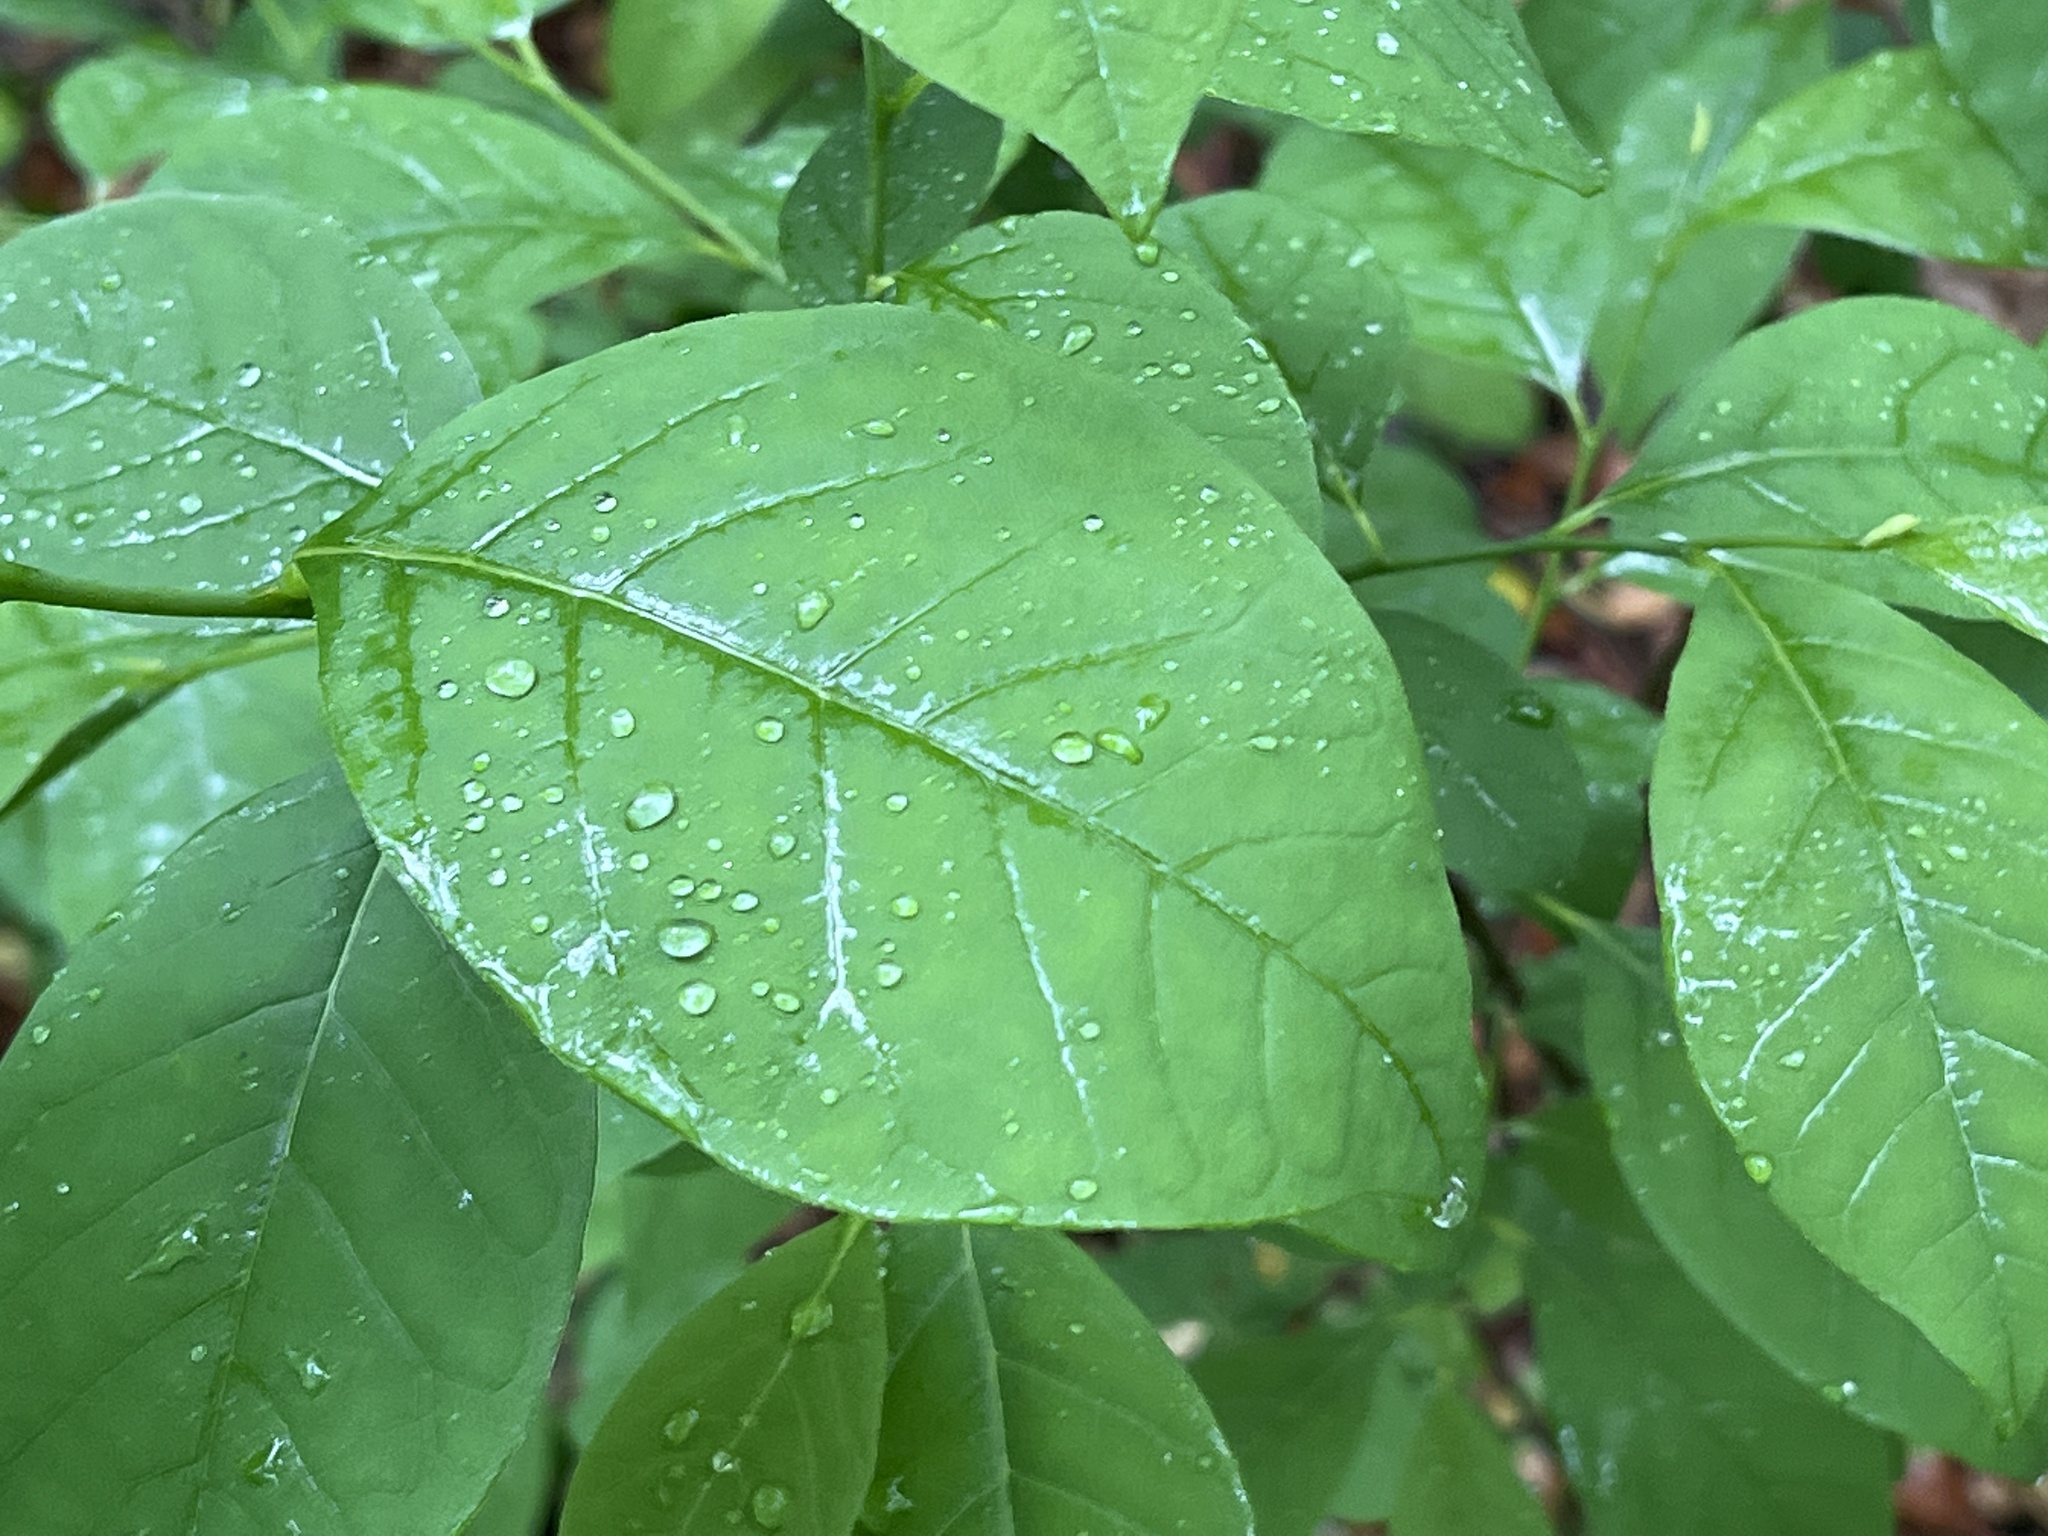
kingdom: Plantae
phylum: Tracheophyta
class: Magnoliopsida
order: Laurales
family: Lauraceae
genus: Lindera
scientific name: Lindera benzoin
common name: Spicebush
